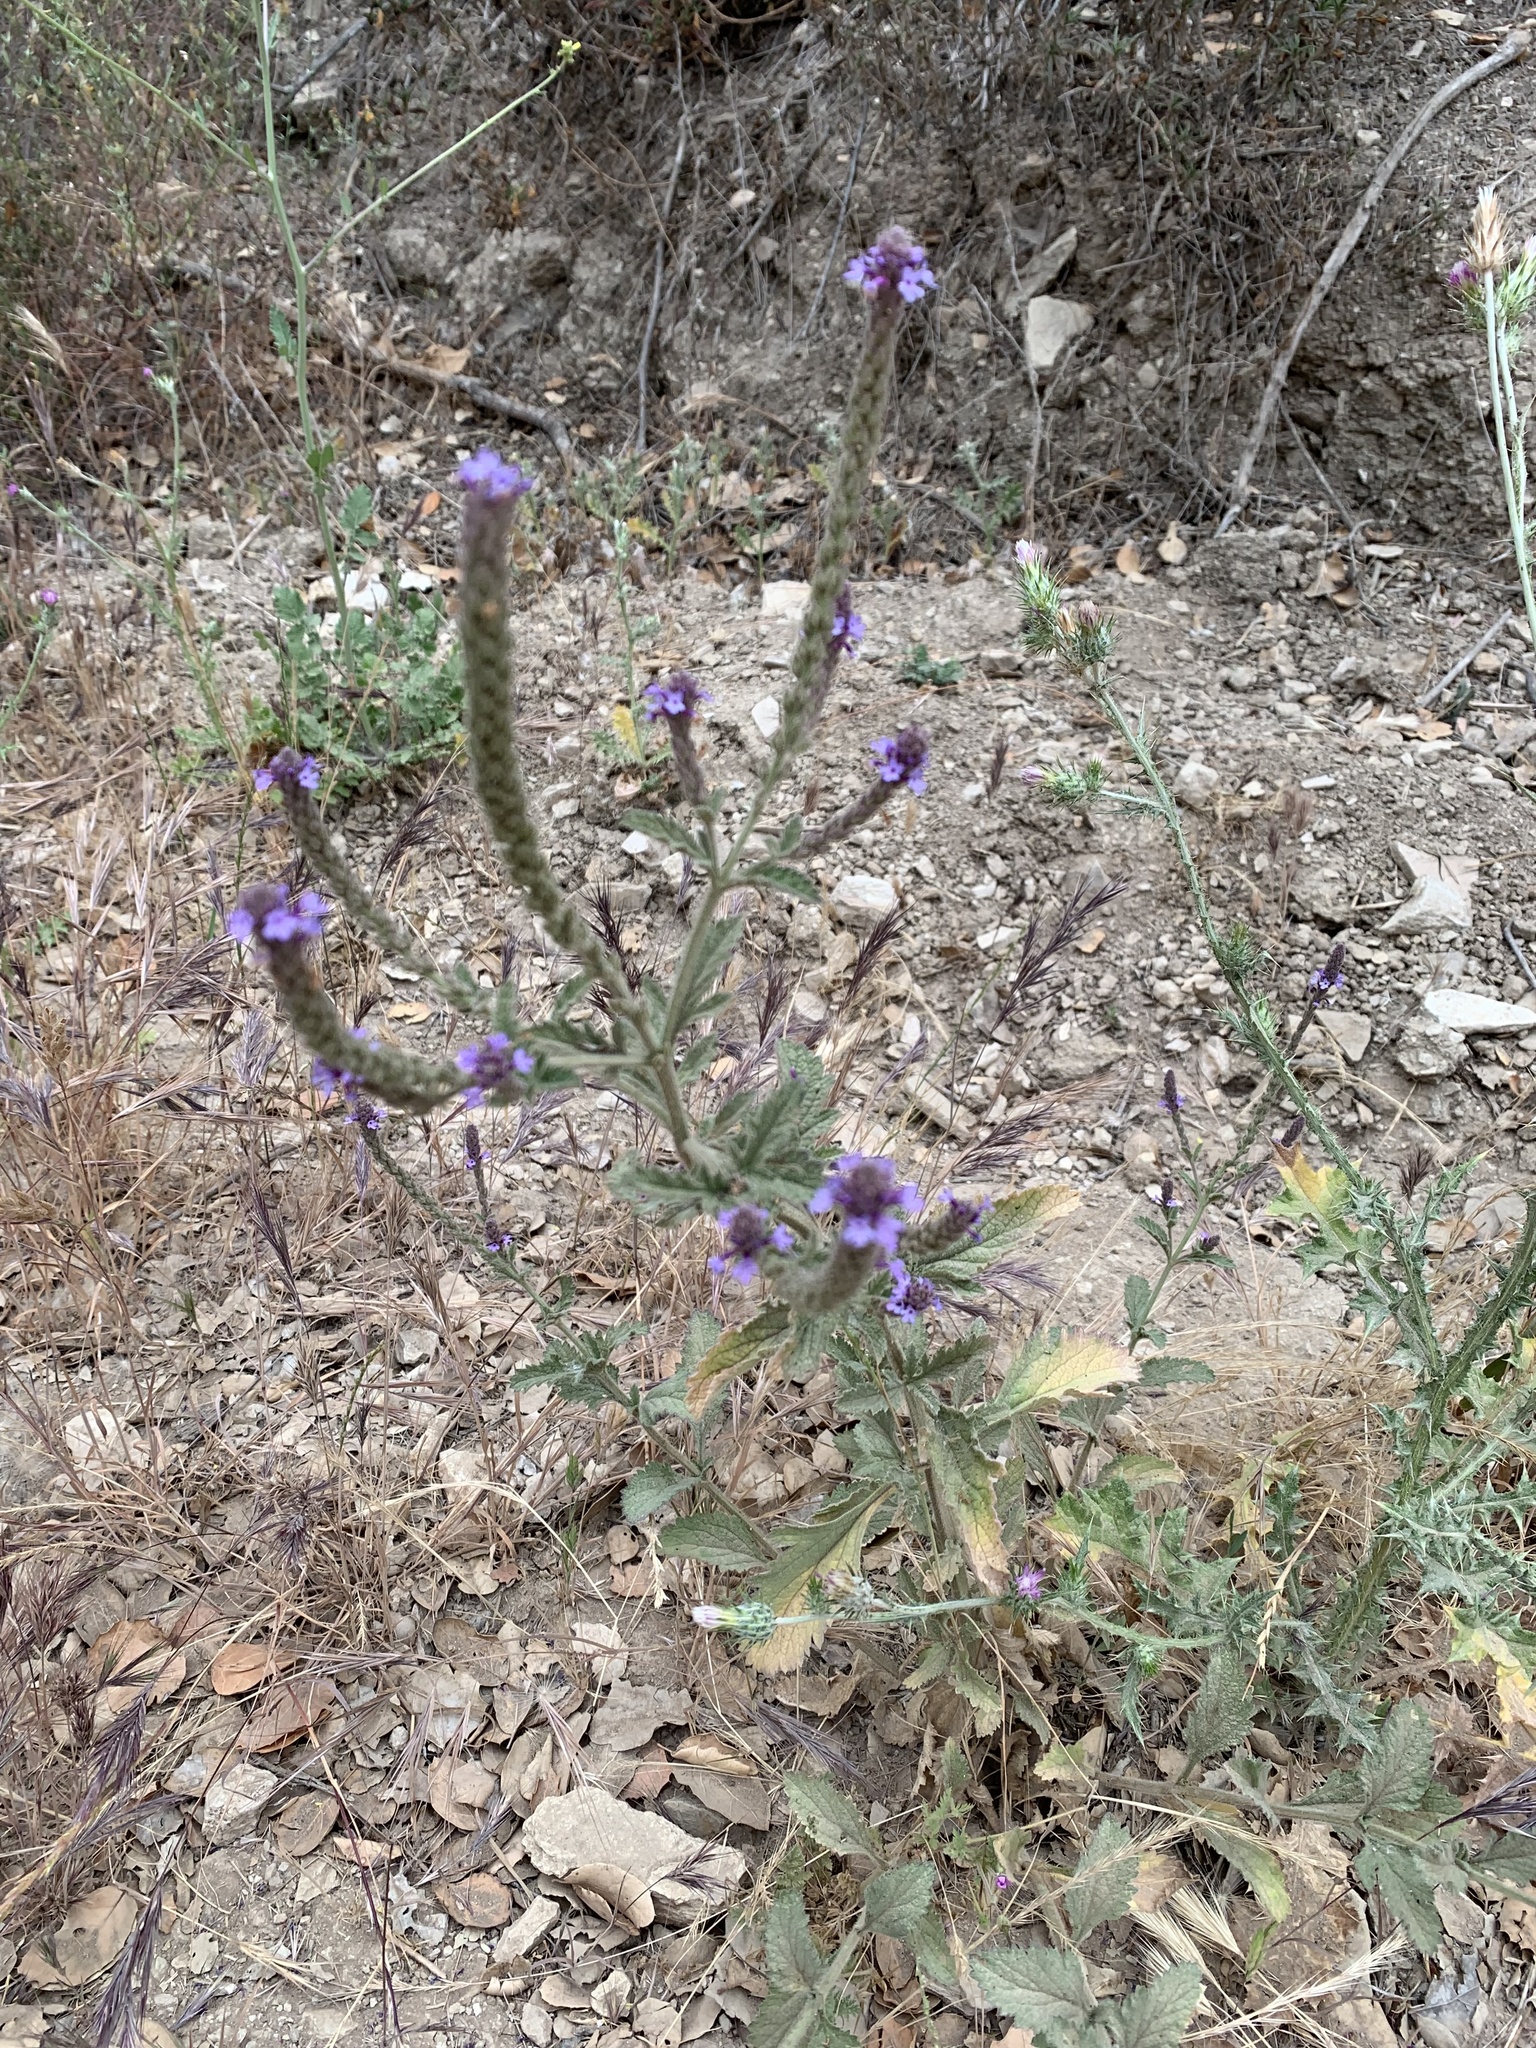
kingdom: Plantae
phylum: Tracheophyta
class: Magnoliopsida
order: Lamiales
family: Verbenaceae
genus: Verbena
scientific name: Verbena lasiostachys
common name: Vervain
